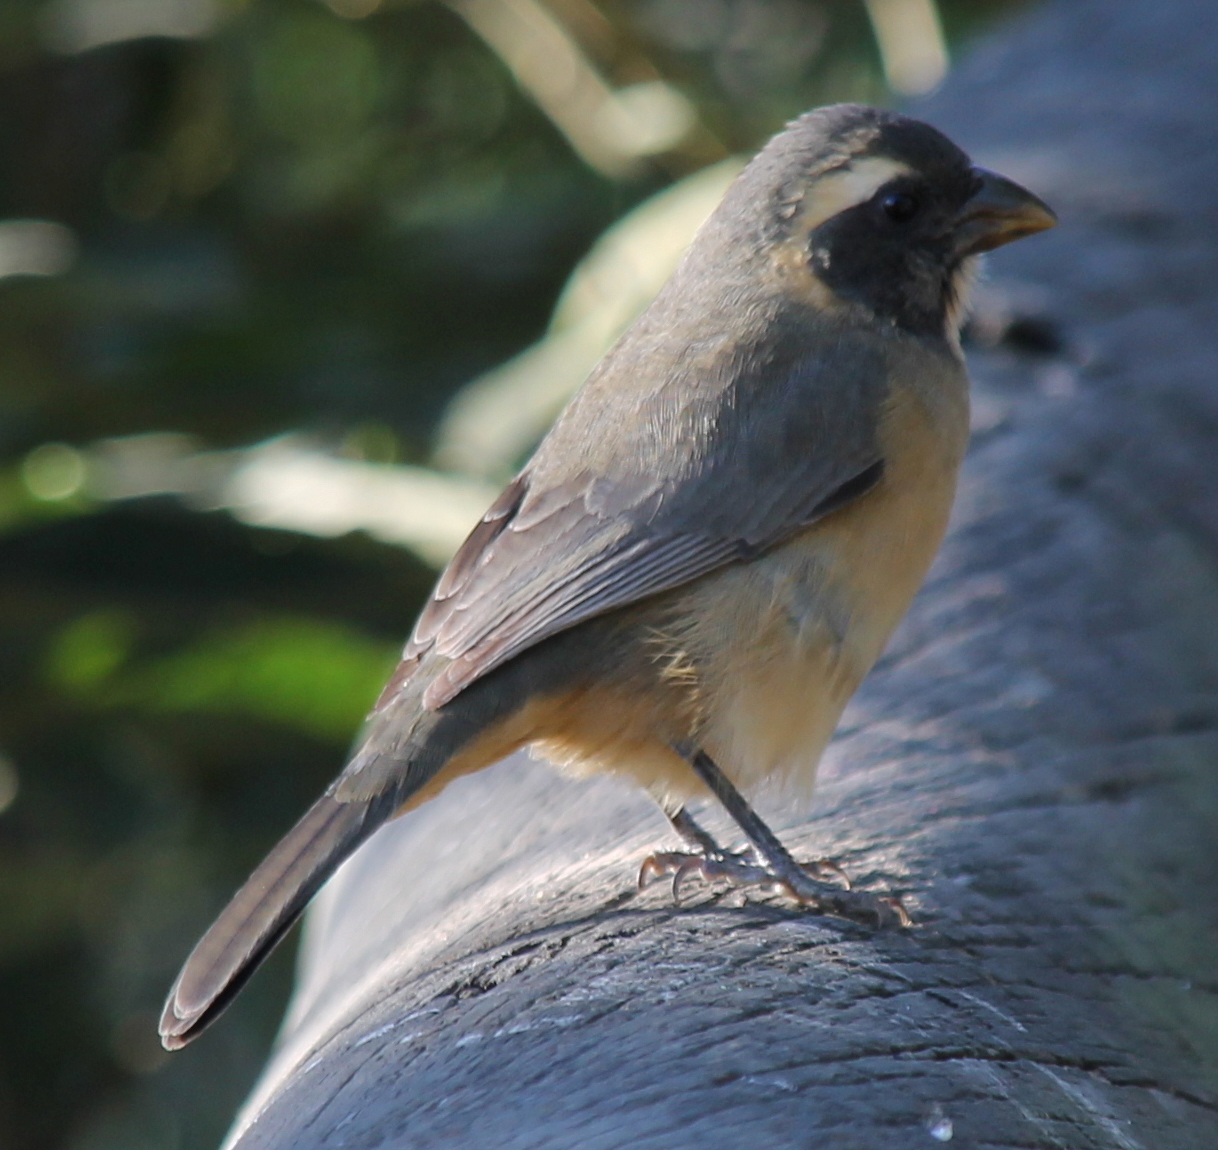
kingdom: Animalia
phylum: Chordata
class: Aves
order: Passeriformes
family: Thraupidae
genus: Saltator
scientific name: Saltator aurantiirostris
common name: Golden-billed saltator
